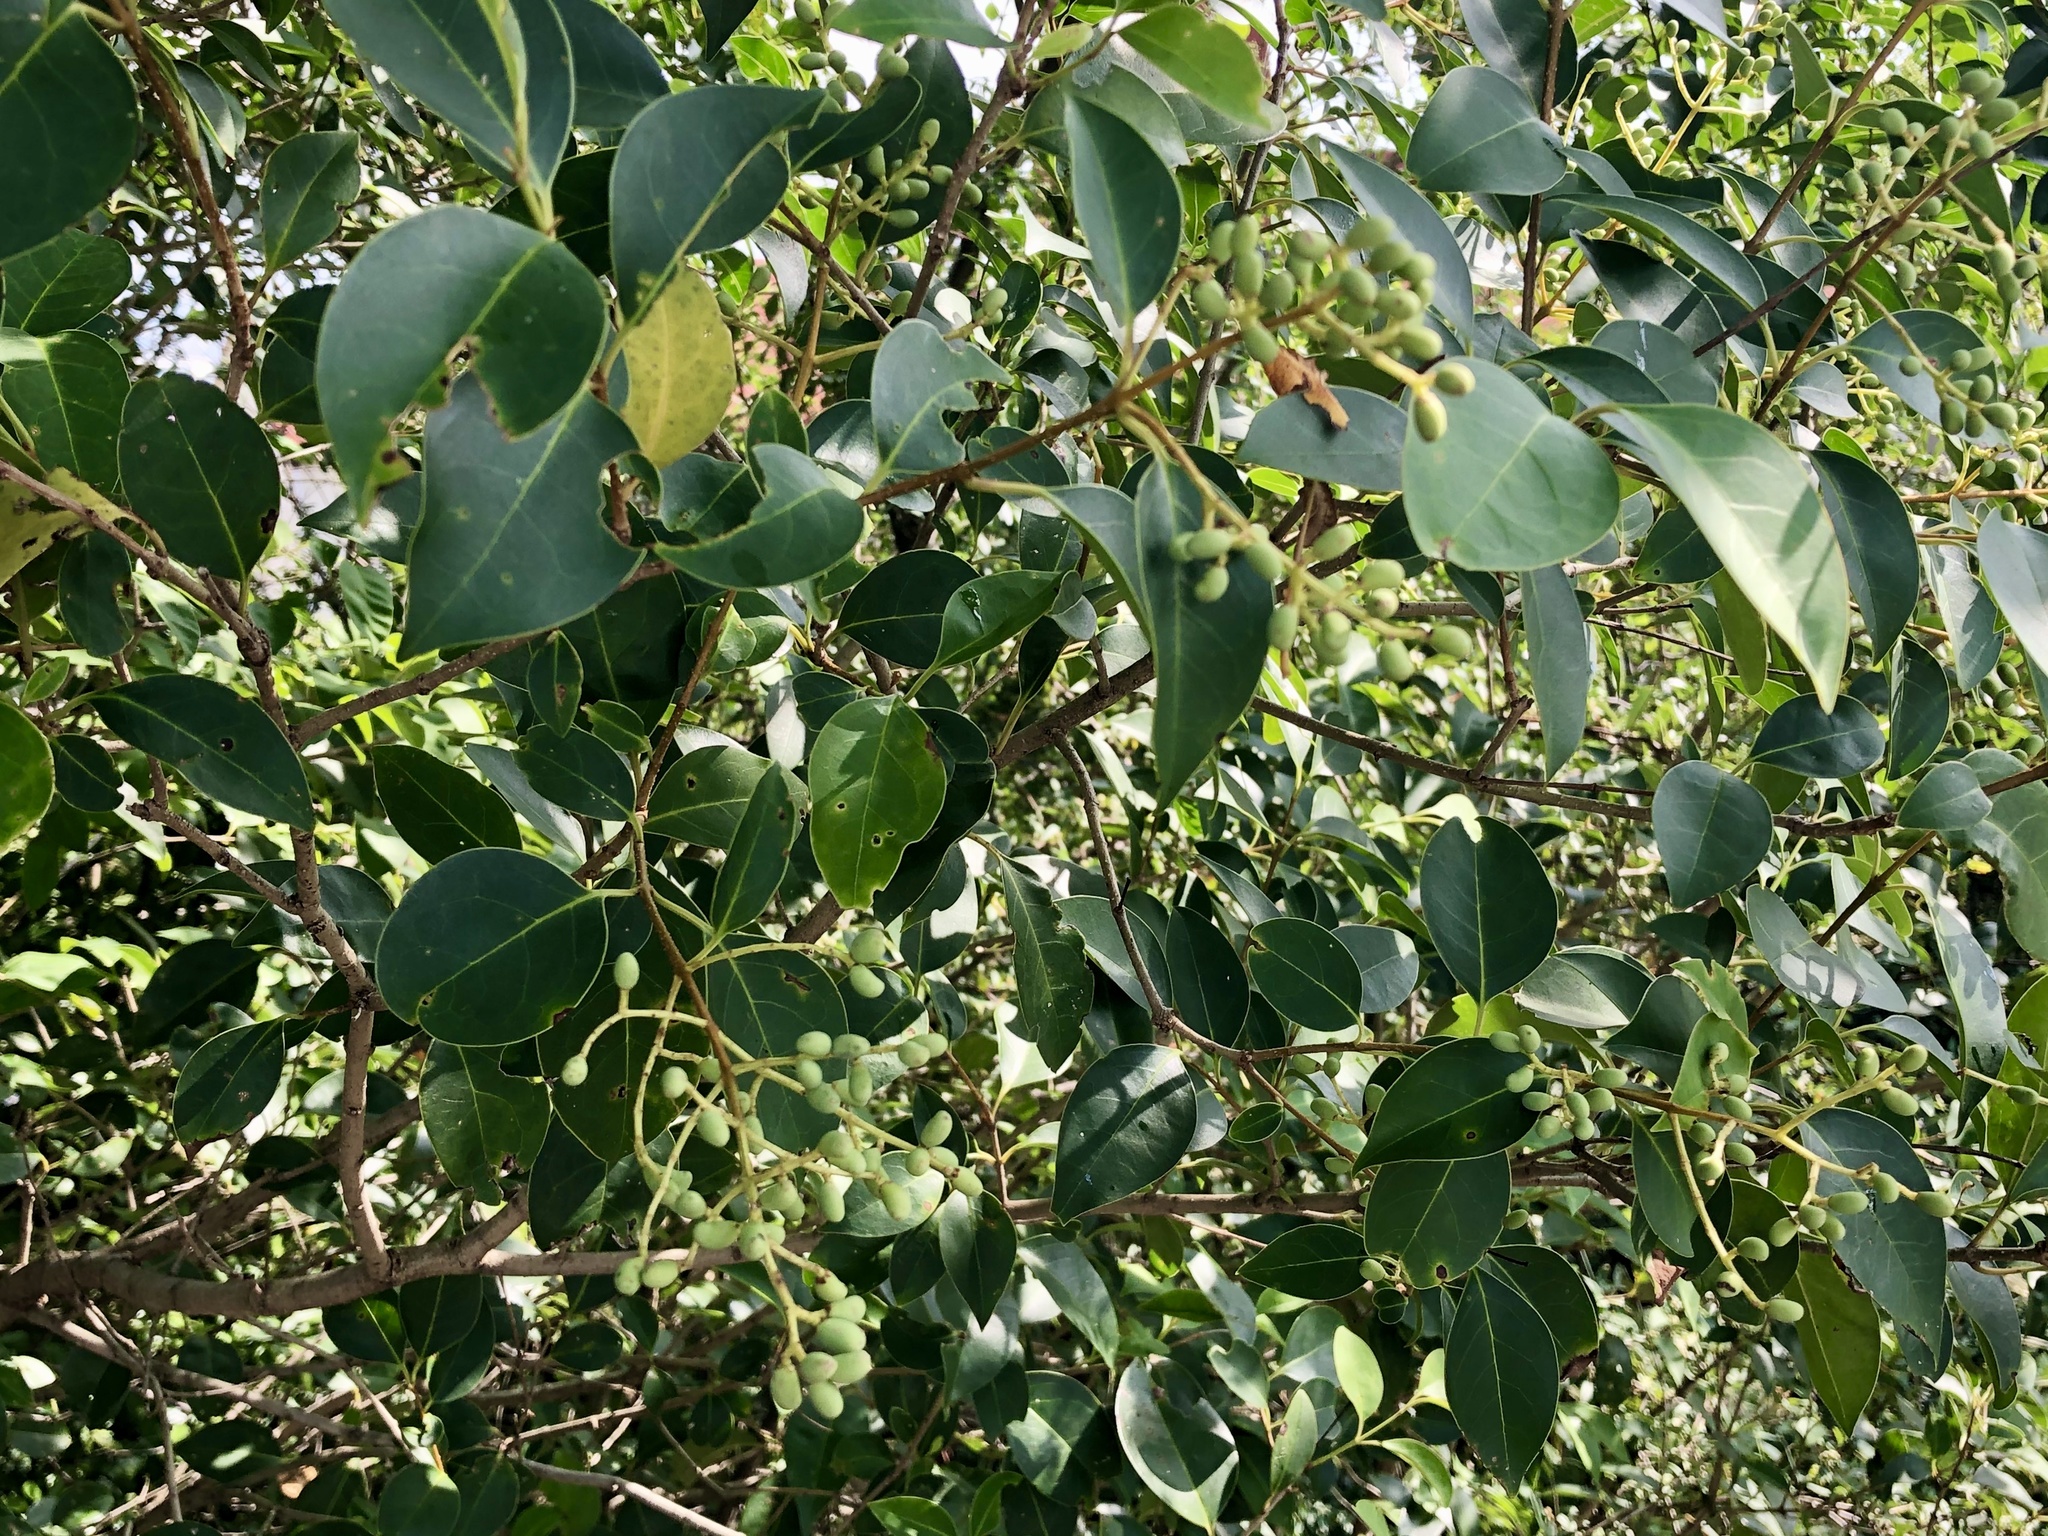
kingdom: Plantae
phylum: Tracheophyta
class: Magnoliopsida
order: Lamiales
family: Oleaceae
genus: Ligustrum
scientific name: Ligustrum lucidum
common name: Glossy privet
